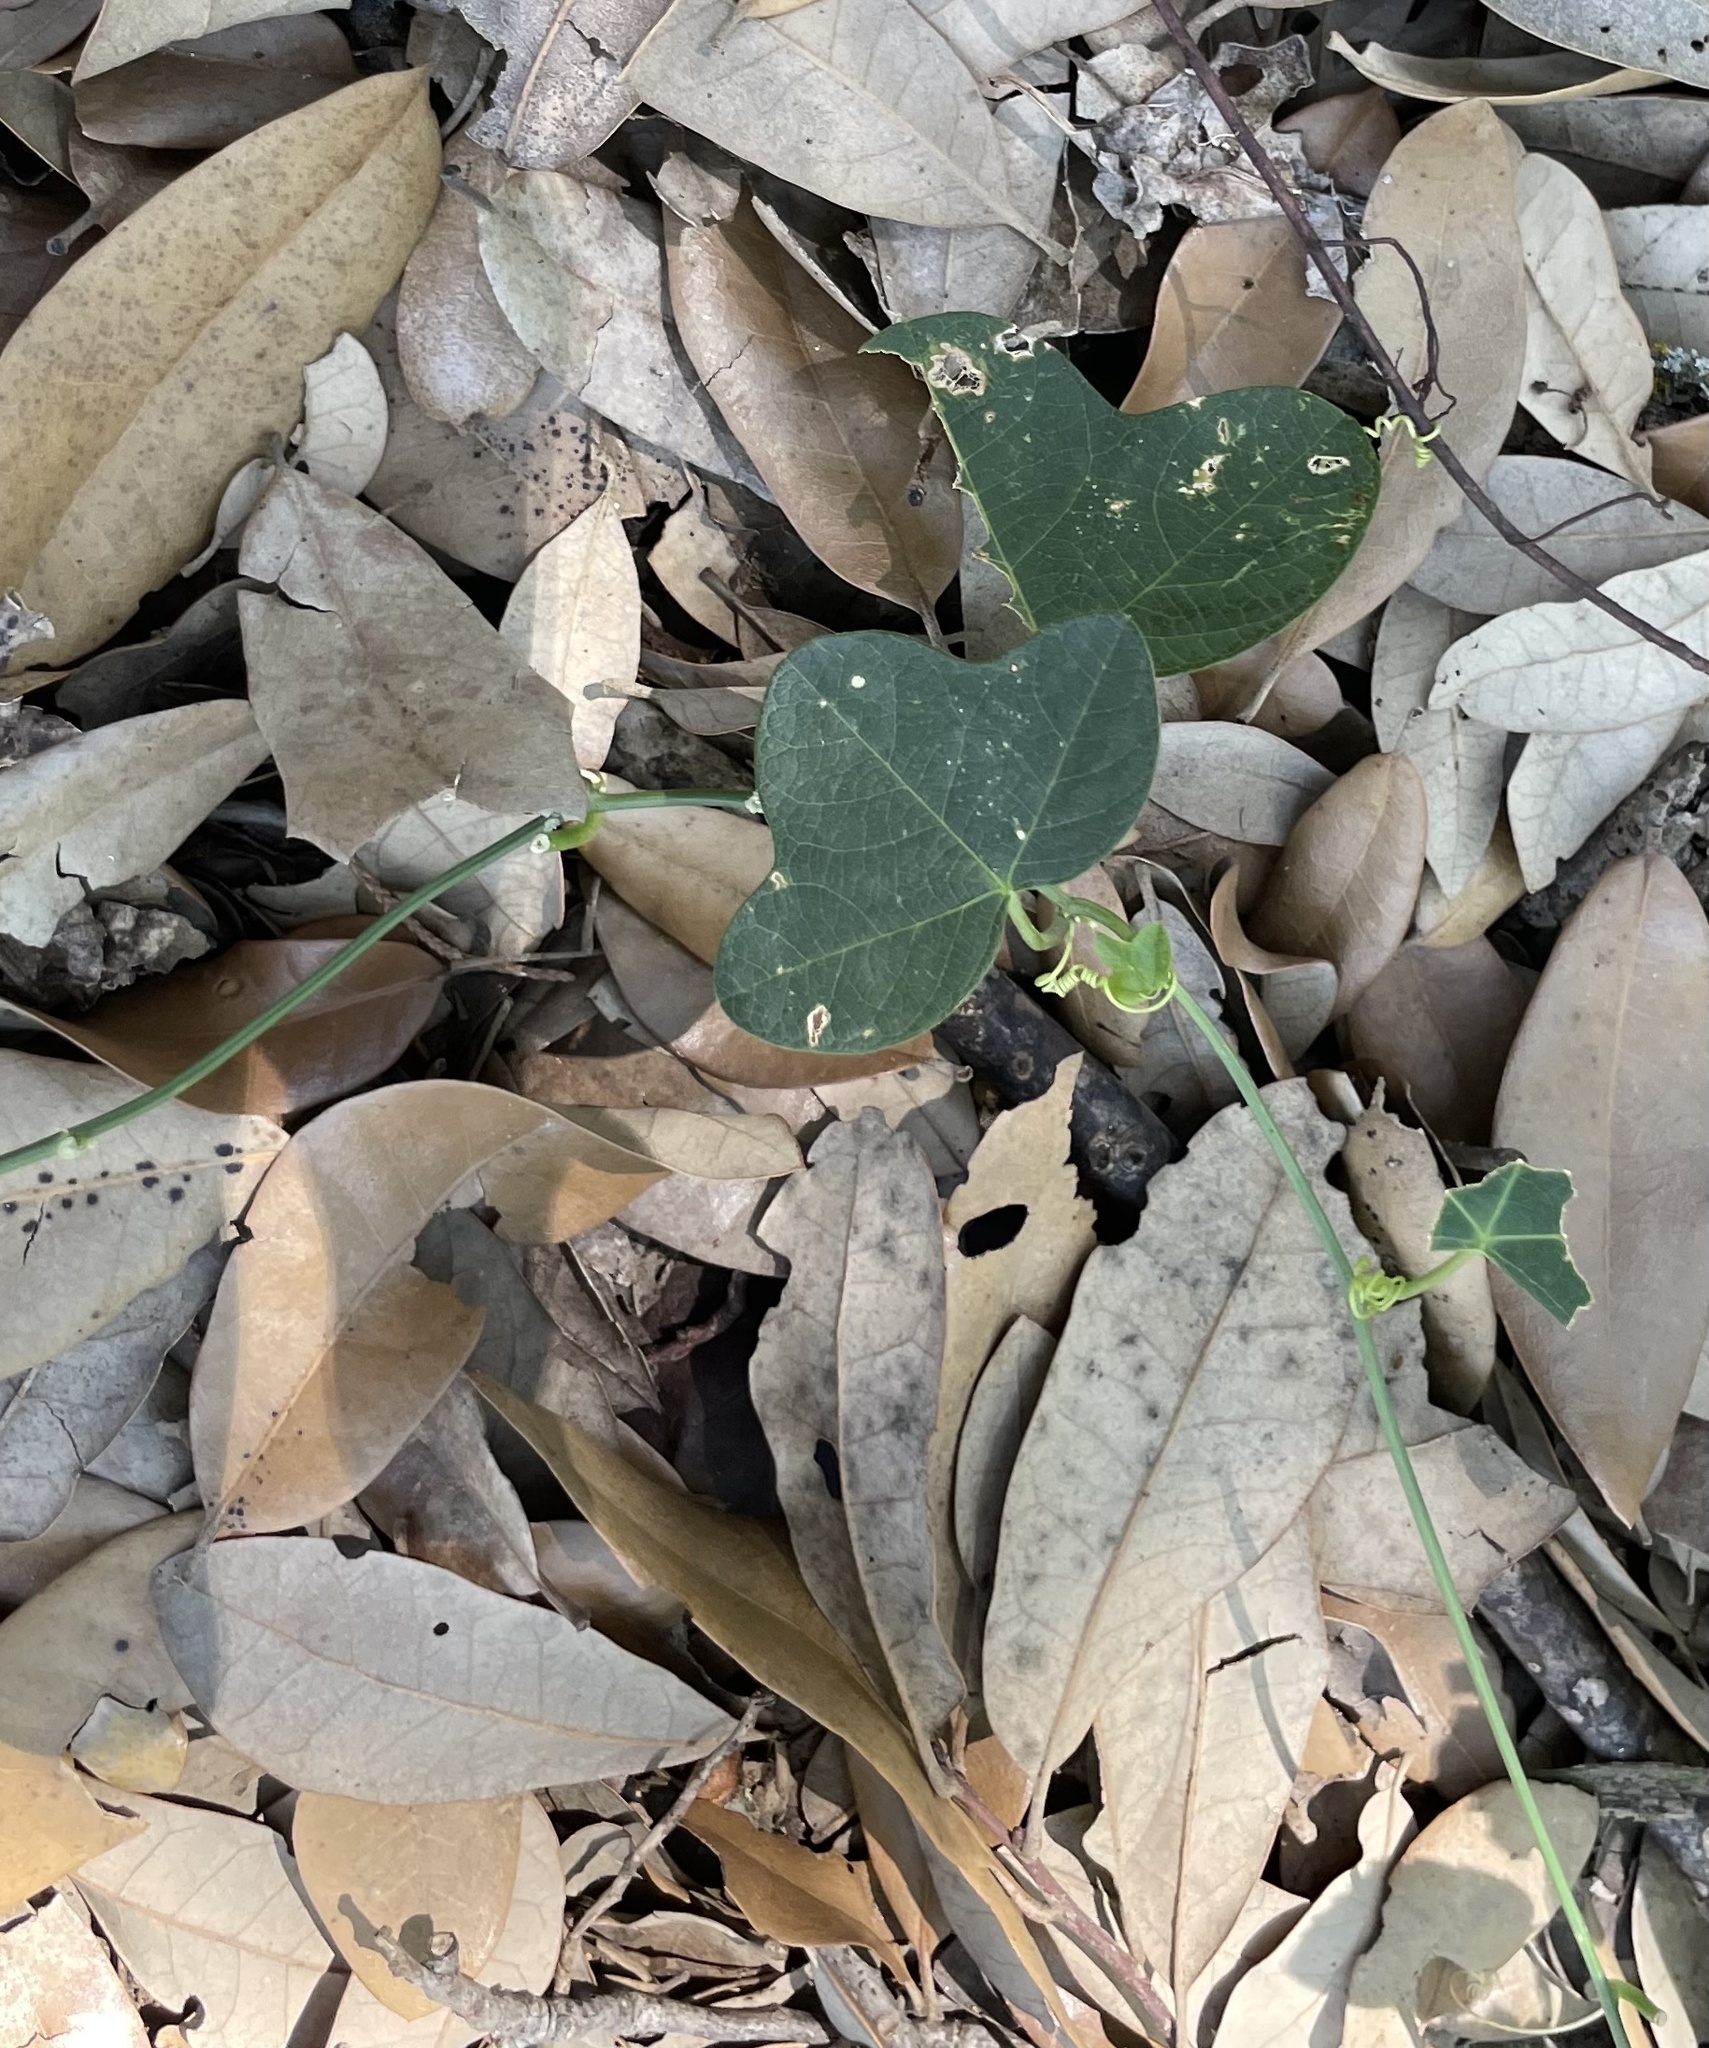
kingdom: Plantae
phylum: Tracheophyta
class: Magnoliopsida
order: Malpighiales
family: Passifloraceae
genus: Passiflora
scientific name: Passiflora lutea
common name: Yellow passionflower
